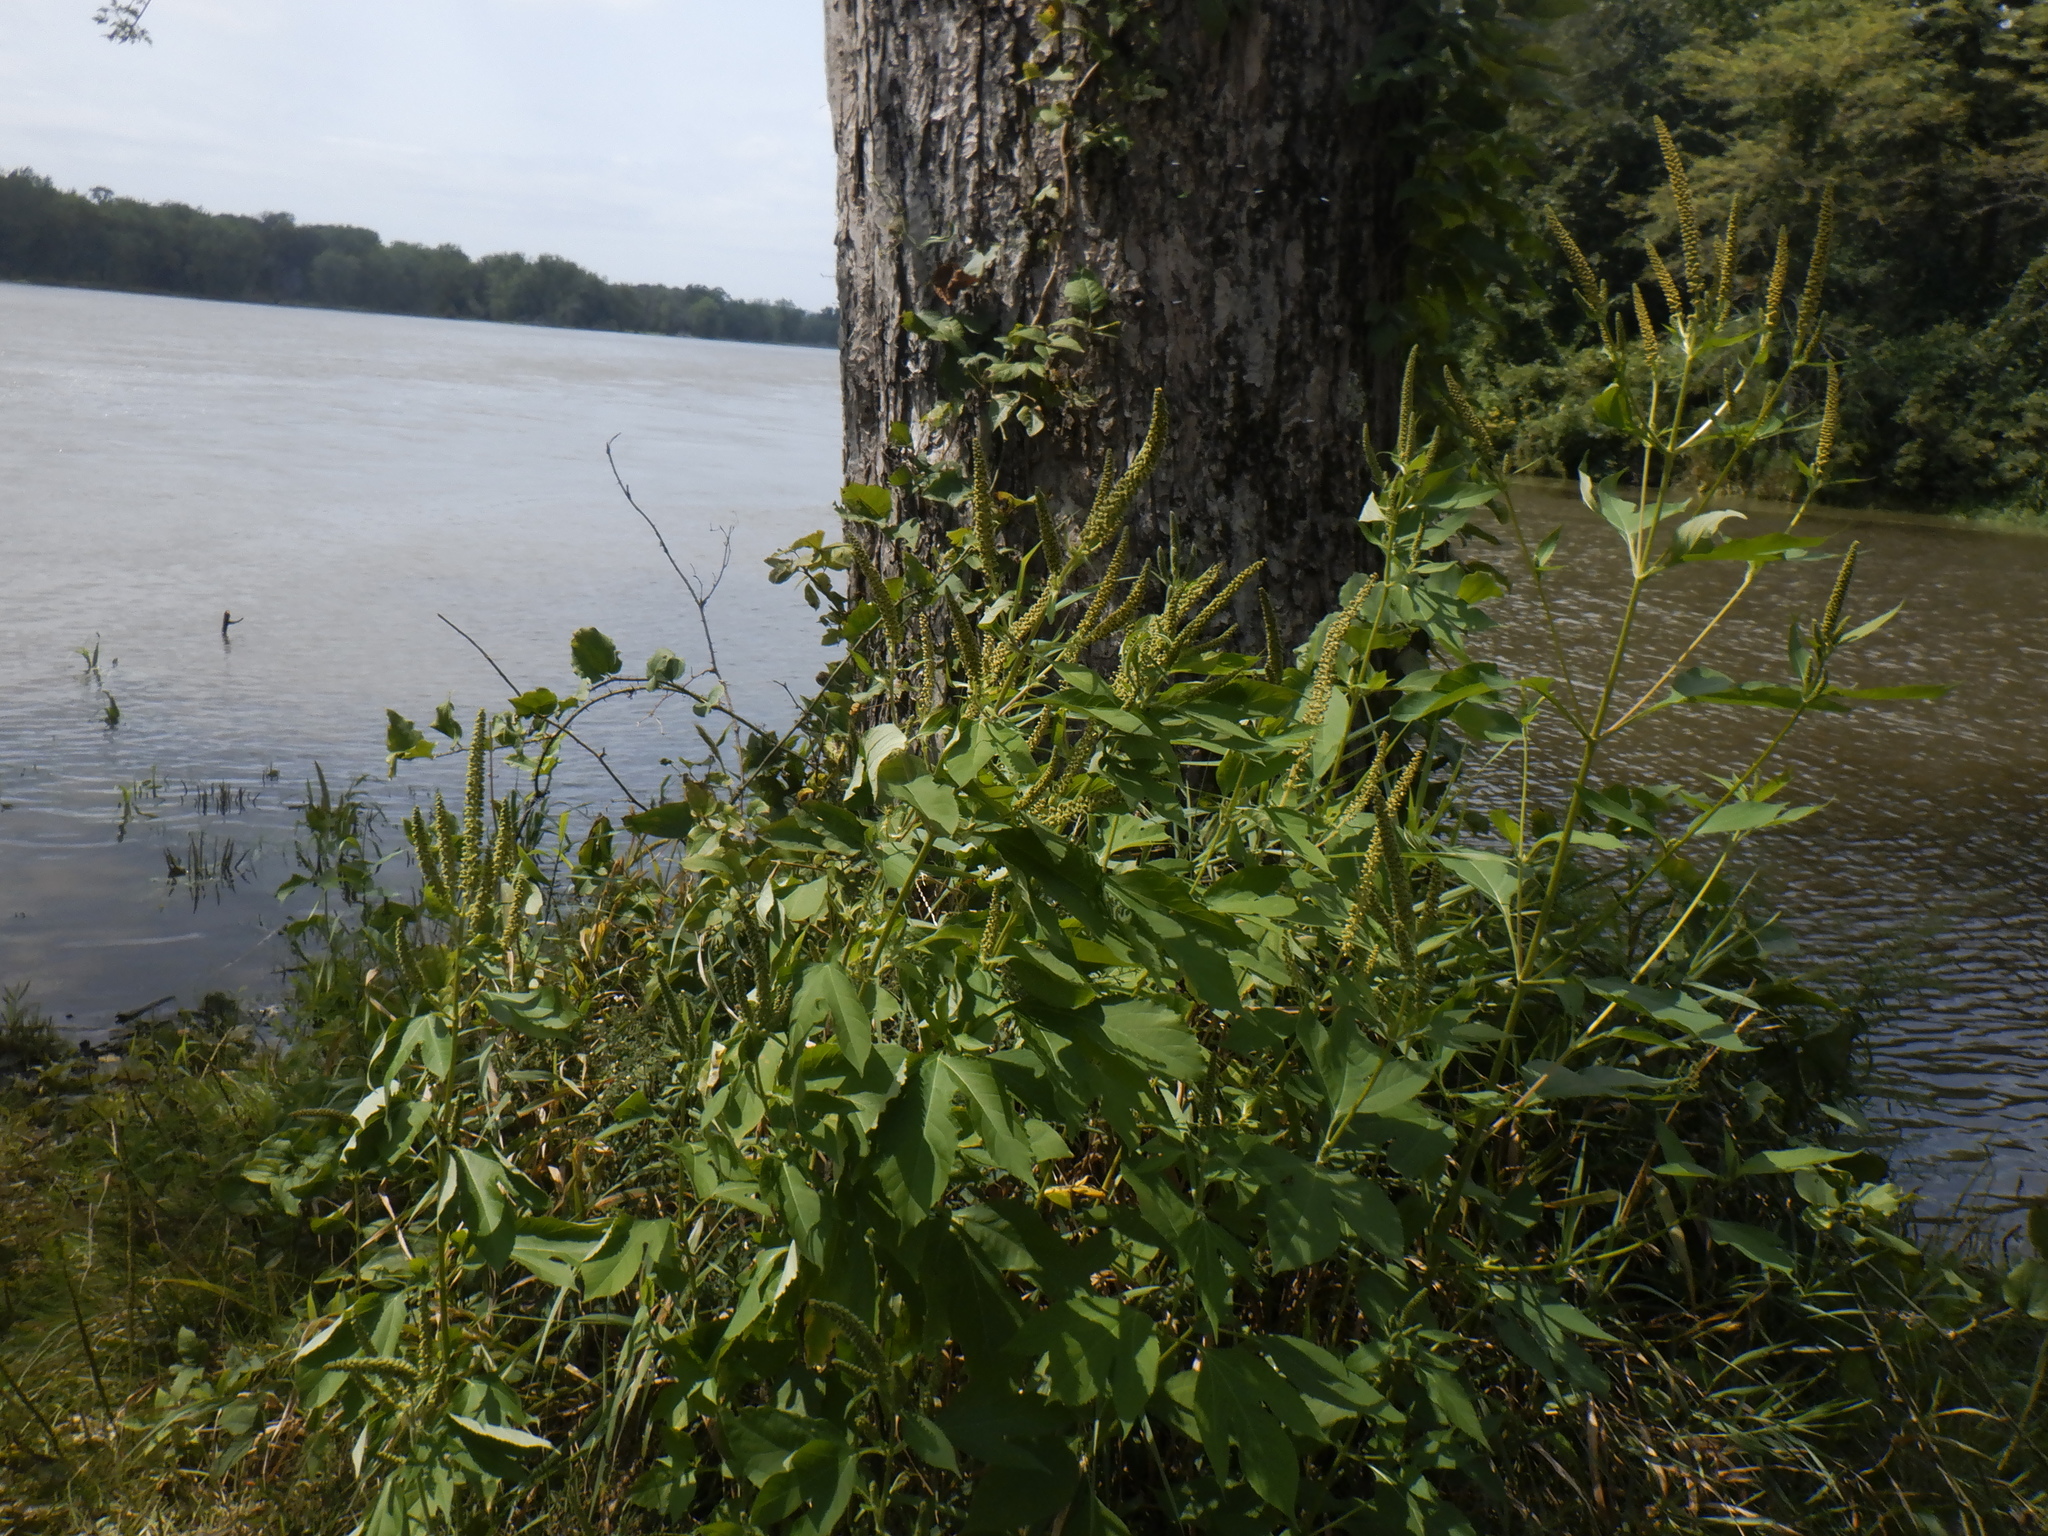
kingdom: Plantae
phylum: Tracheophyta
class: Magnoliopsida
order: Asterales
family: Asteraceae
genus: Ambrosia
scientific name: Ambrosia trifida
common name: Giant ragweed
